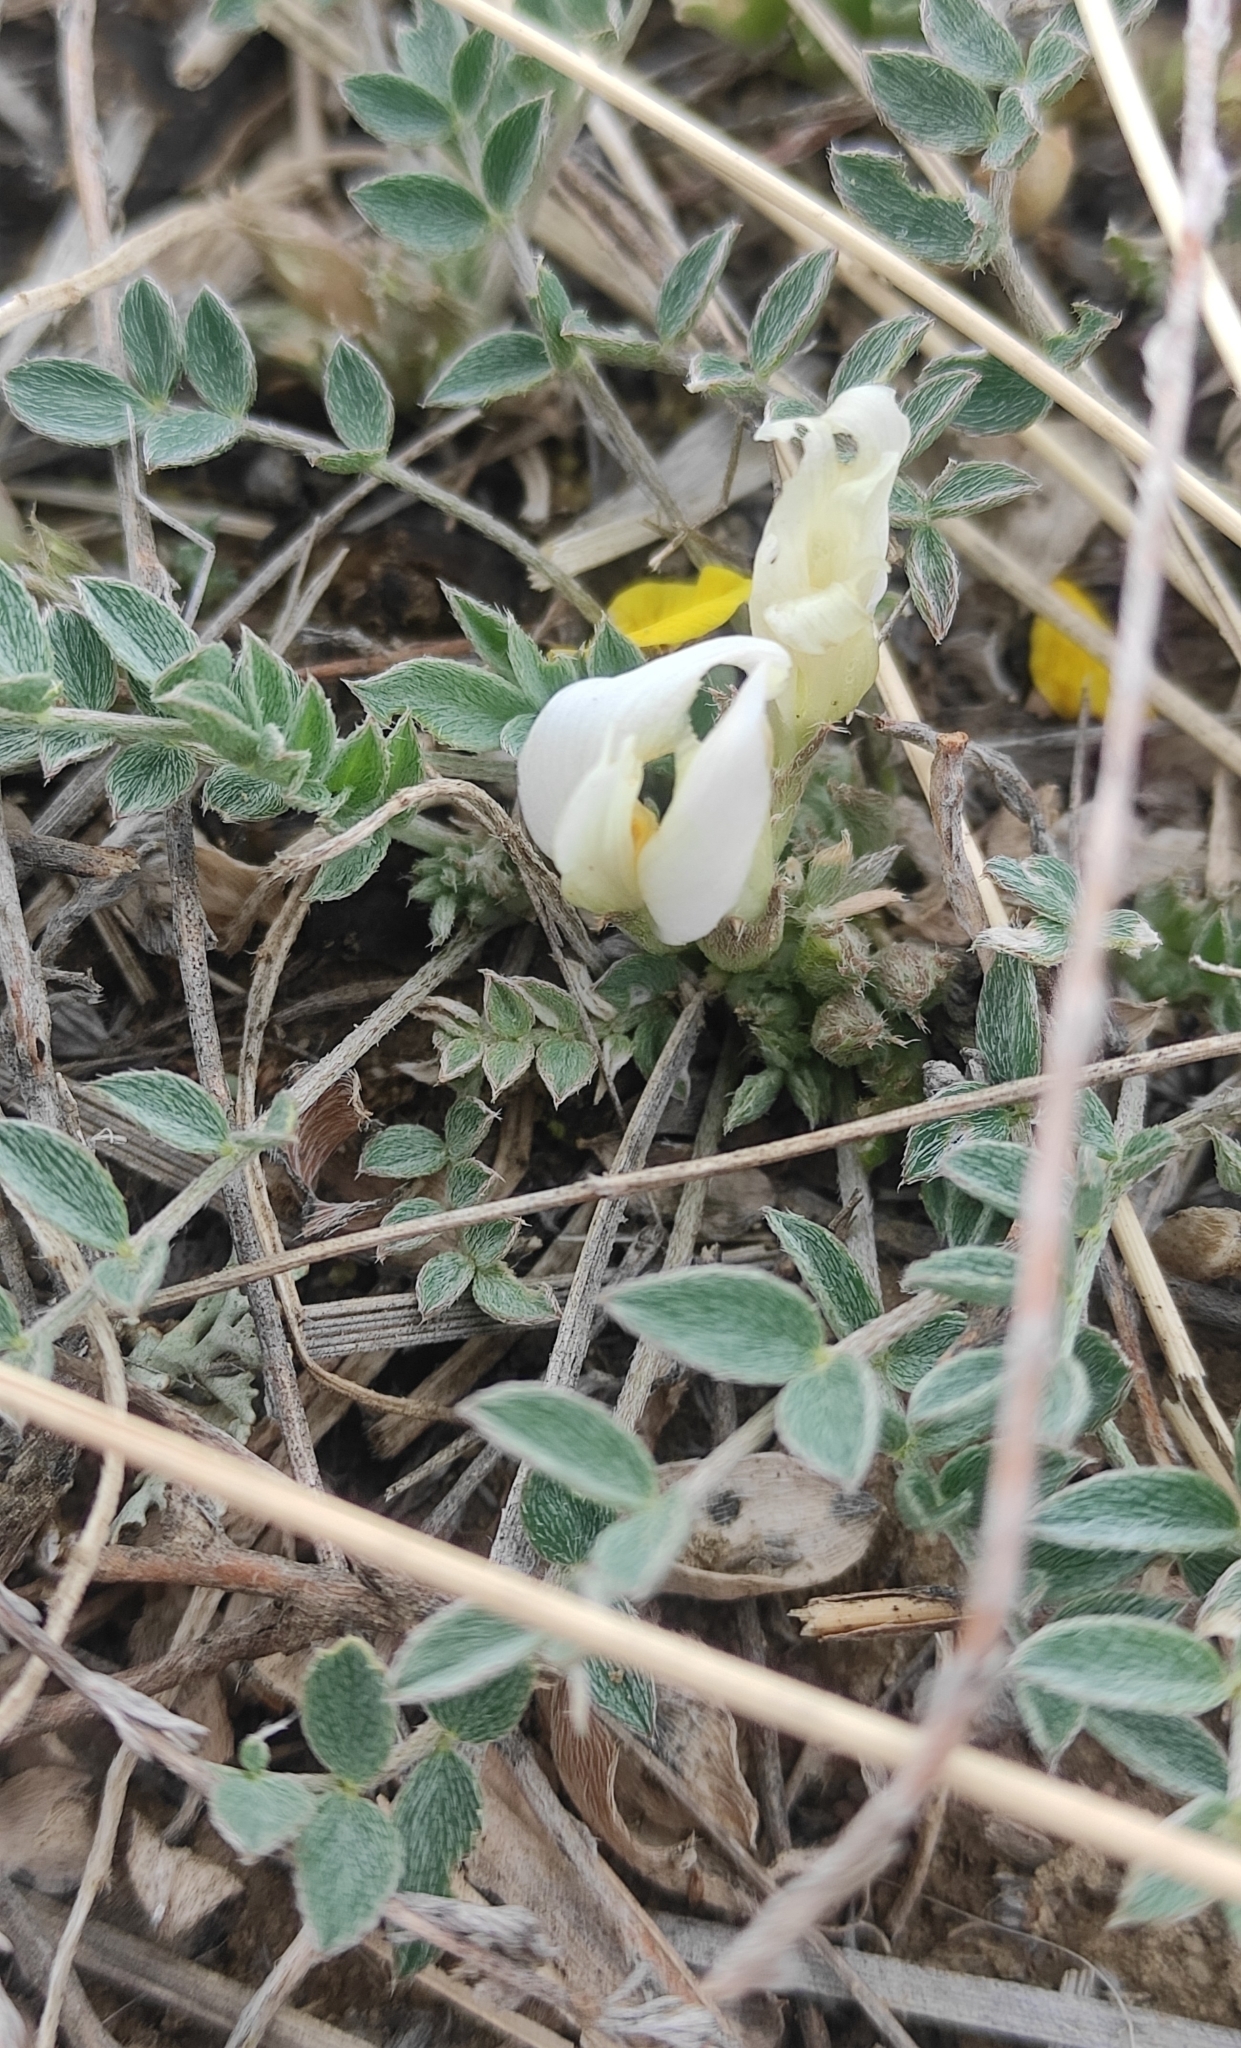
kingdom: Plantae
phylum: Tracheophyta
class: Magnoliopsida
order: Fabales
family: Fabaceae
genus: Astragalus
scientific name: Astragalus scaberrimus
